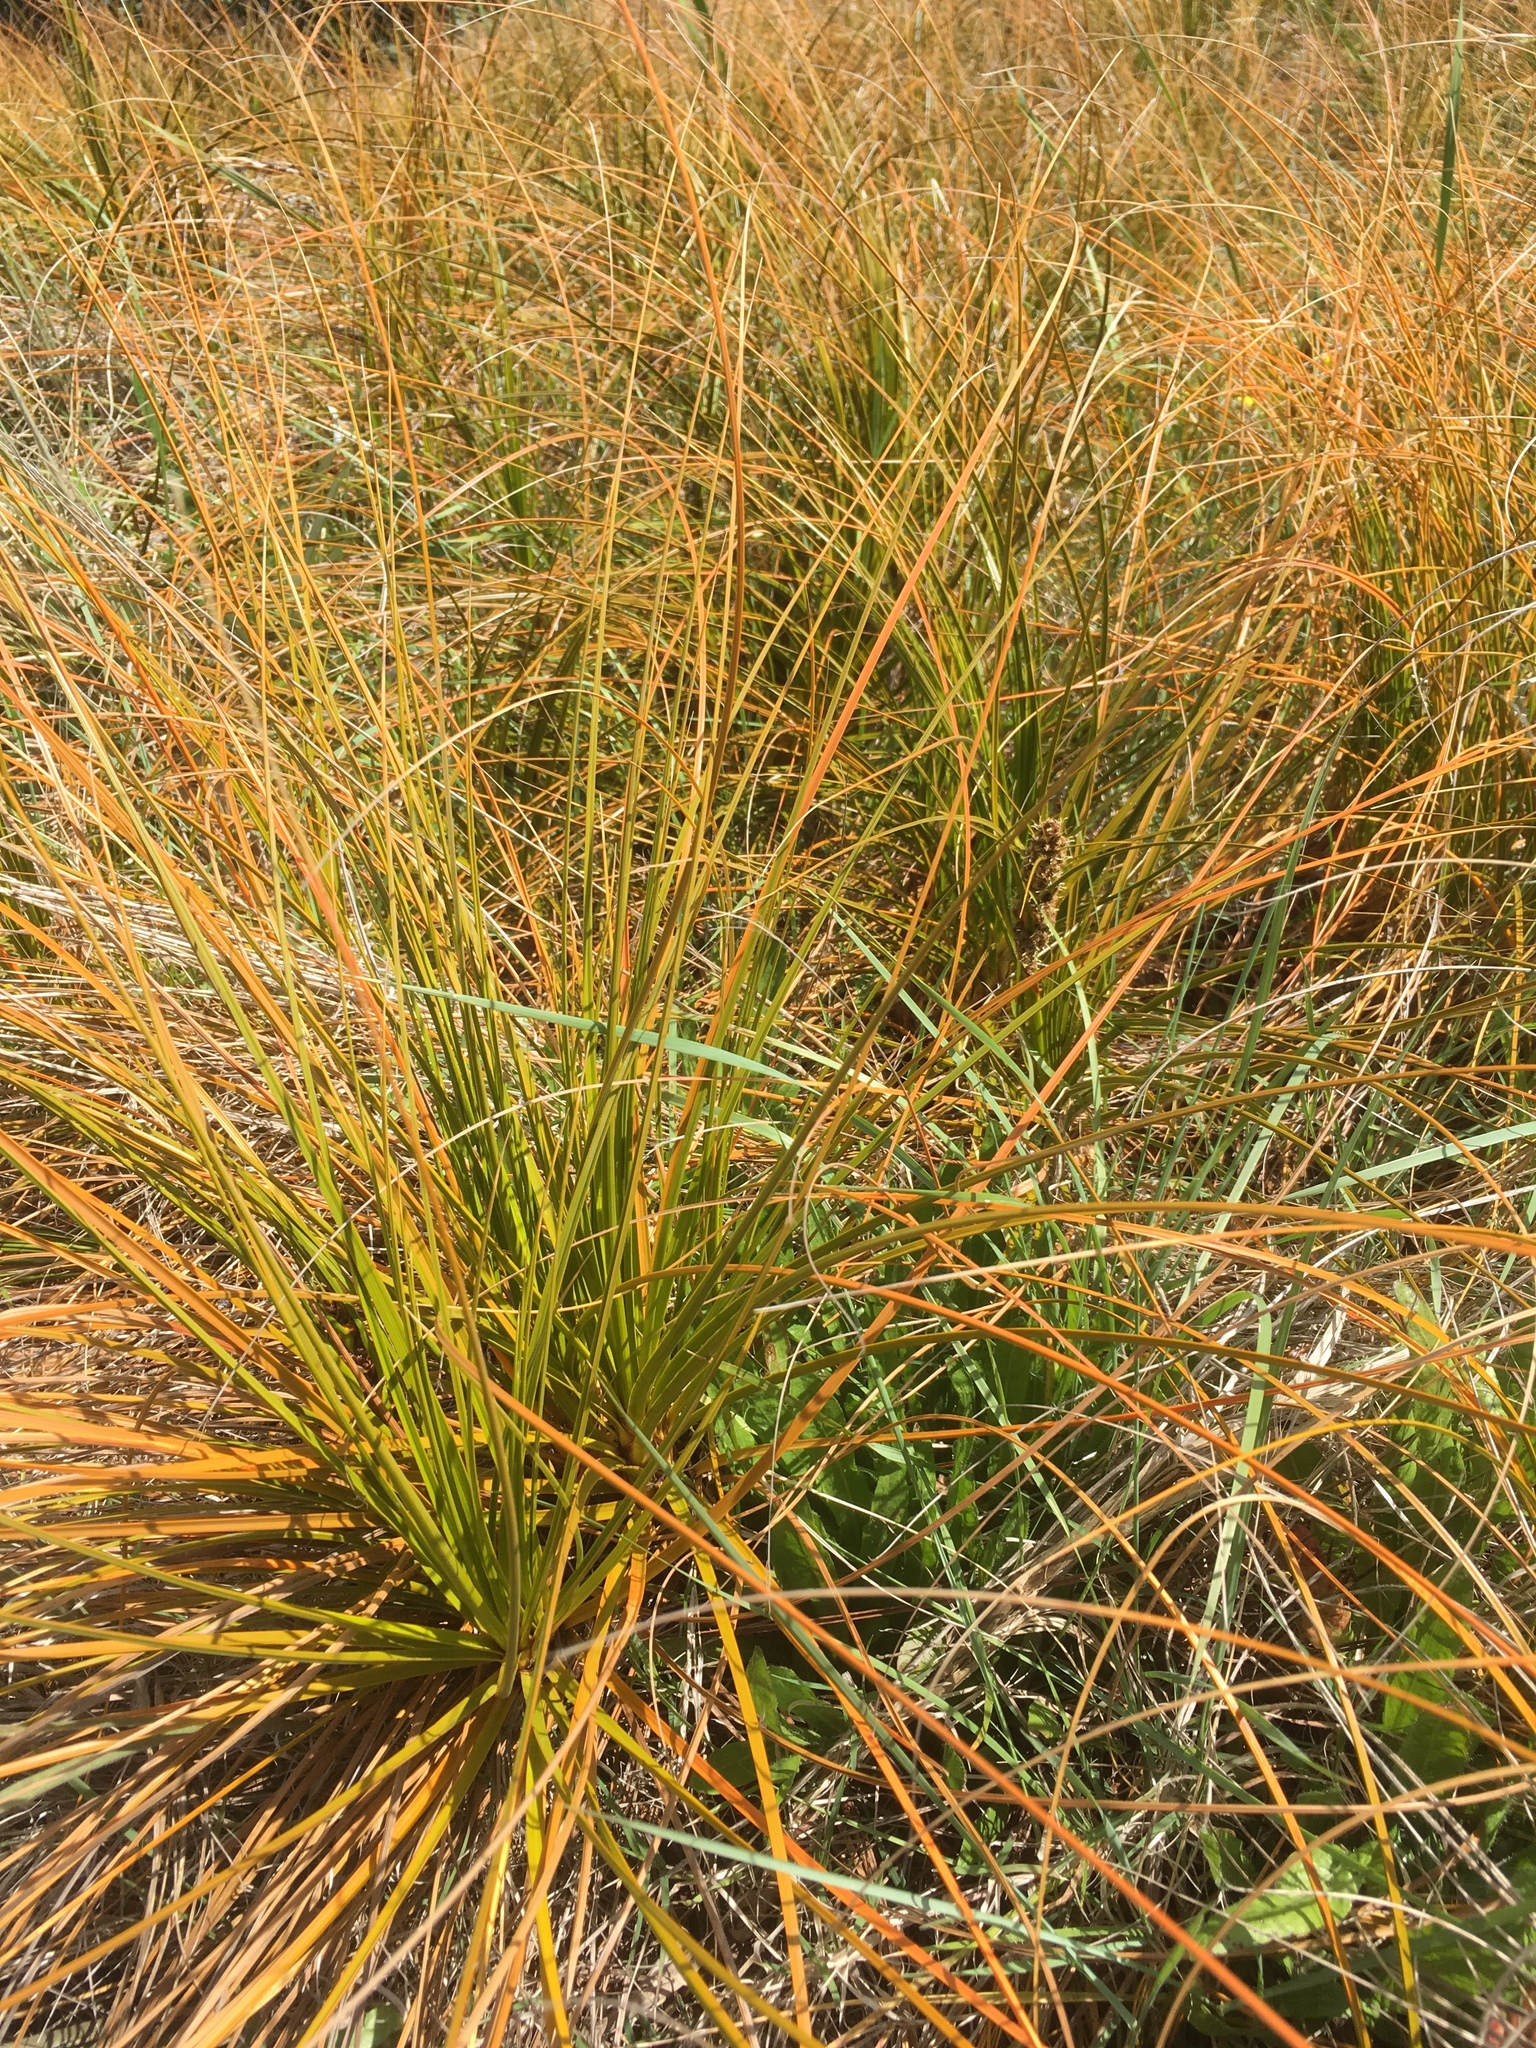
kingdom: Plantae
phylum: Tracheophyta
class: Liliopsida
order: Poales
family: Cyperaceae
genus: Ficinia
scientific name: Ficinia spiralis
